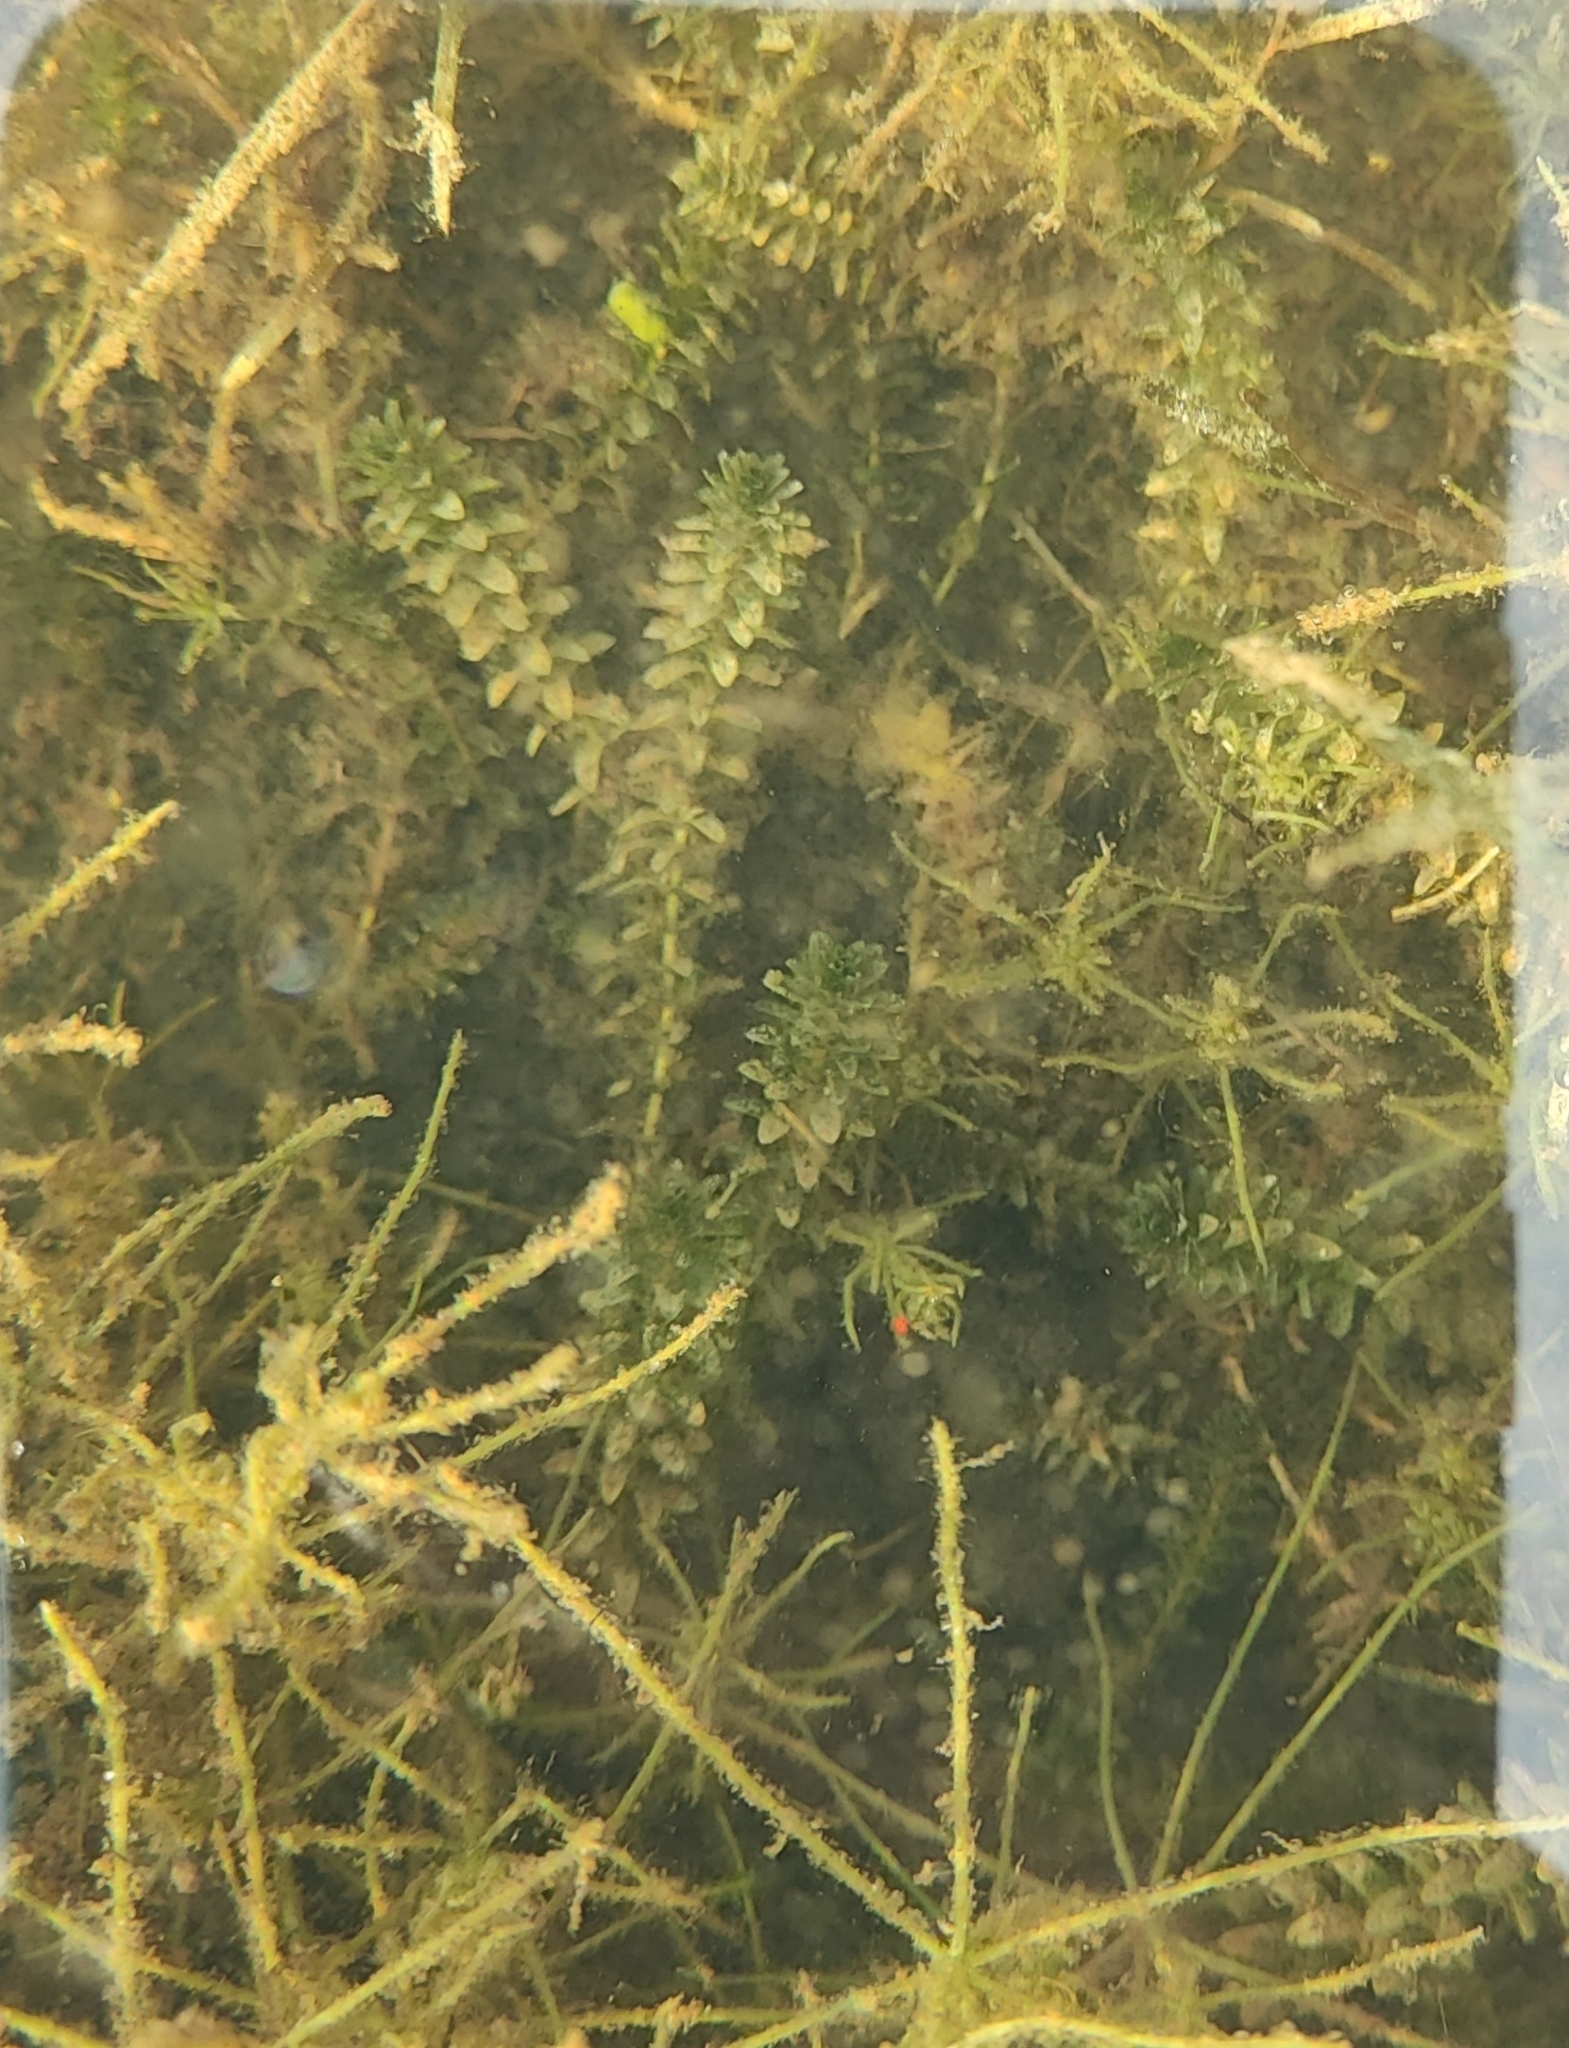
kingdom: Plantae
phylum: Tracheophyta
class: Liliopsida
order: Alismatales
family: Hydrocharitaceae
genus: Elodea
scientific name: Elodea canadensis
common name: Canadian waterweed
